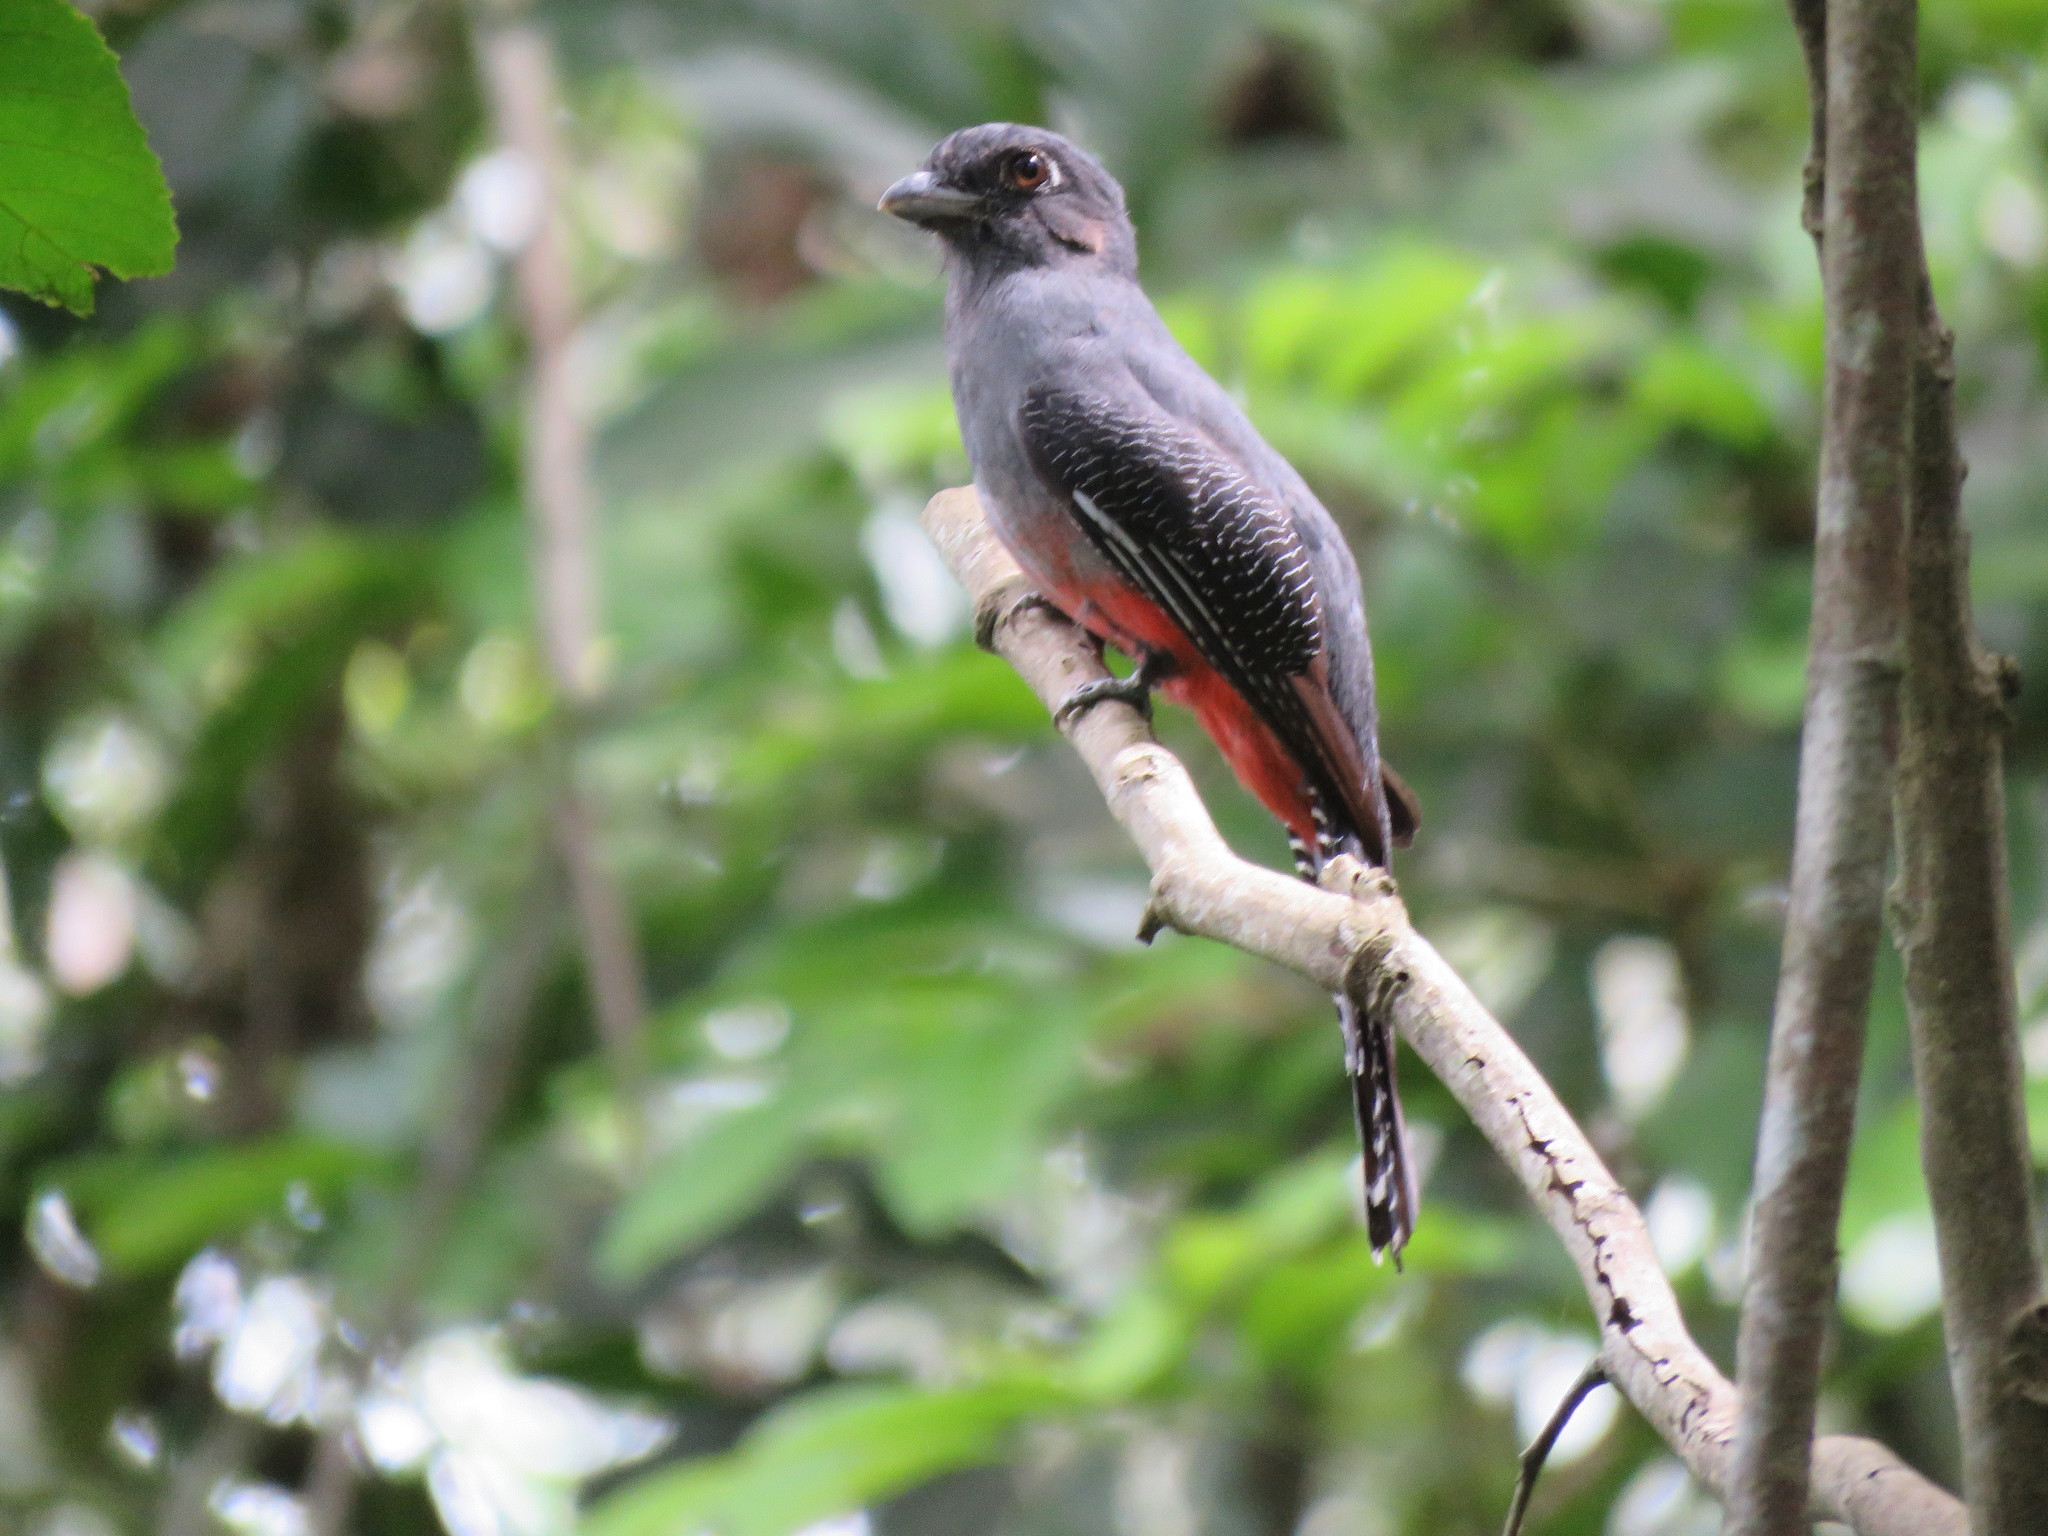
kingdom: Animalia
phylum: Chordata
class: Aves
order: Trogoniformes
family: Trogonidae
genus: Trogon
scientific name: Trogon curucui
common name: Blue-crowned trogon
